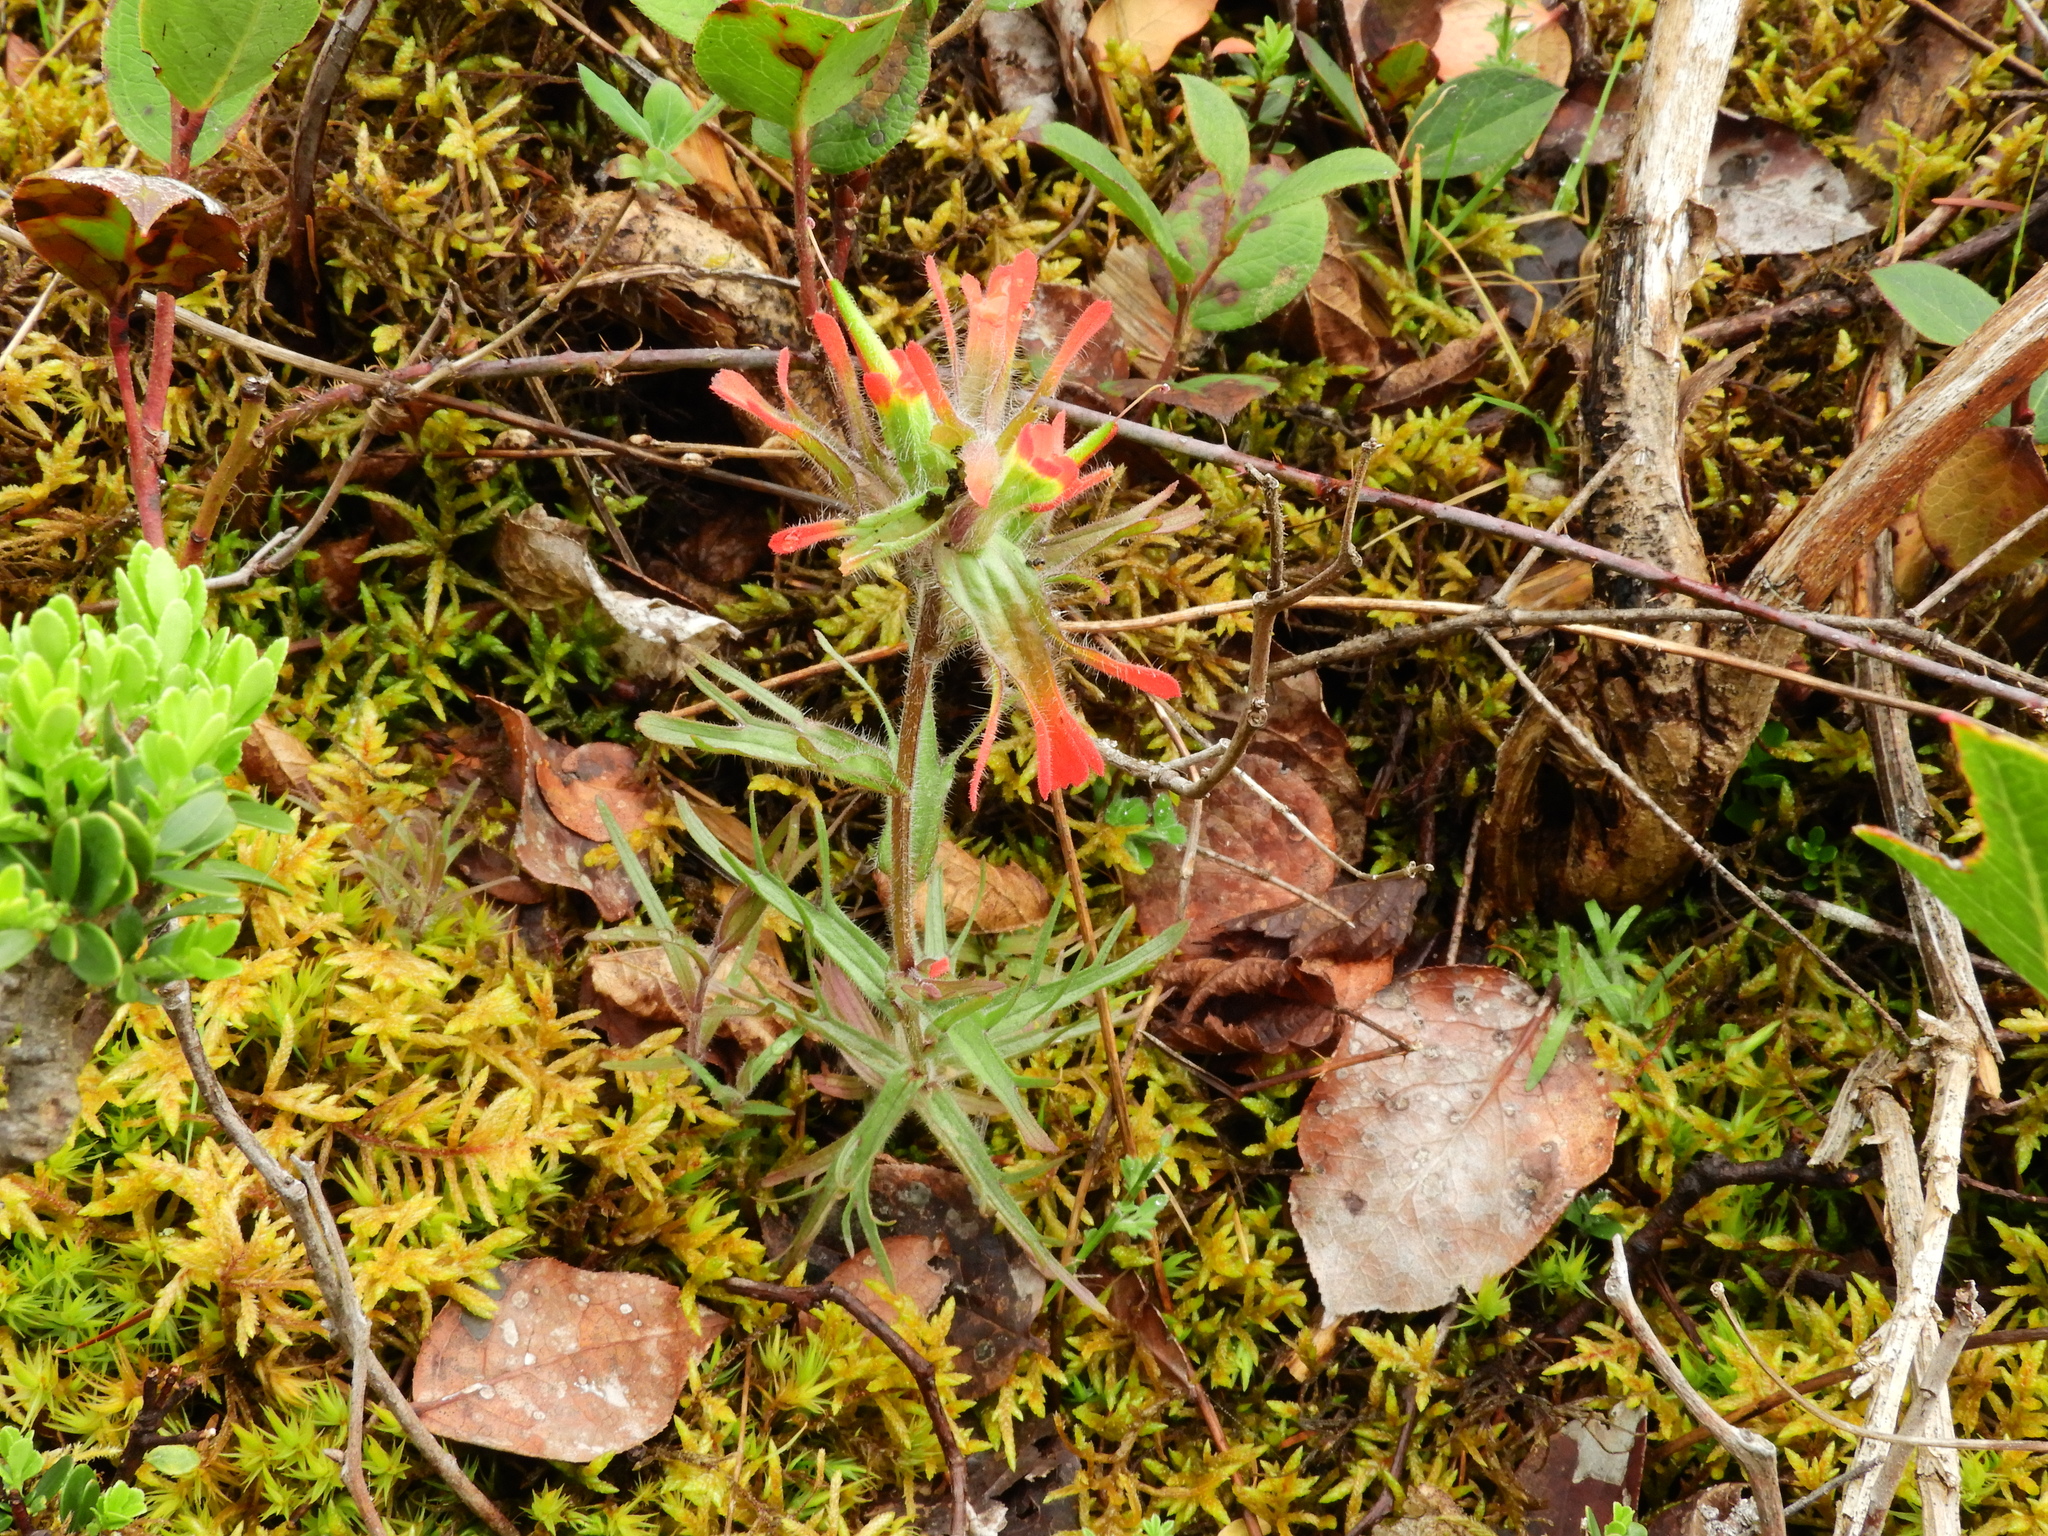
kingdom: Plantae
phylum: Tracheophyta
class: Magnoliopsida
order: Lamiales
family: Orobanchaceae
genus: Castilleja
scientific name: Castilleja hispida
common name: Bristly paintbrush
